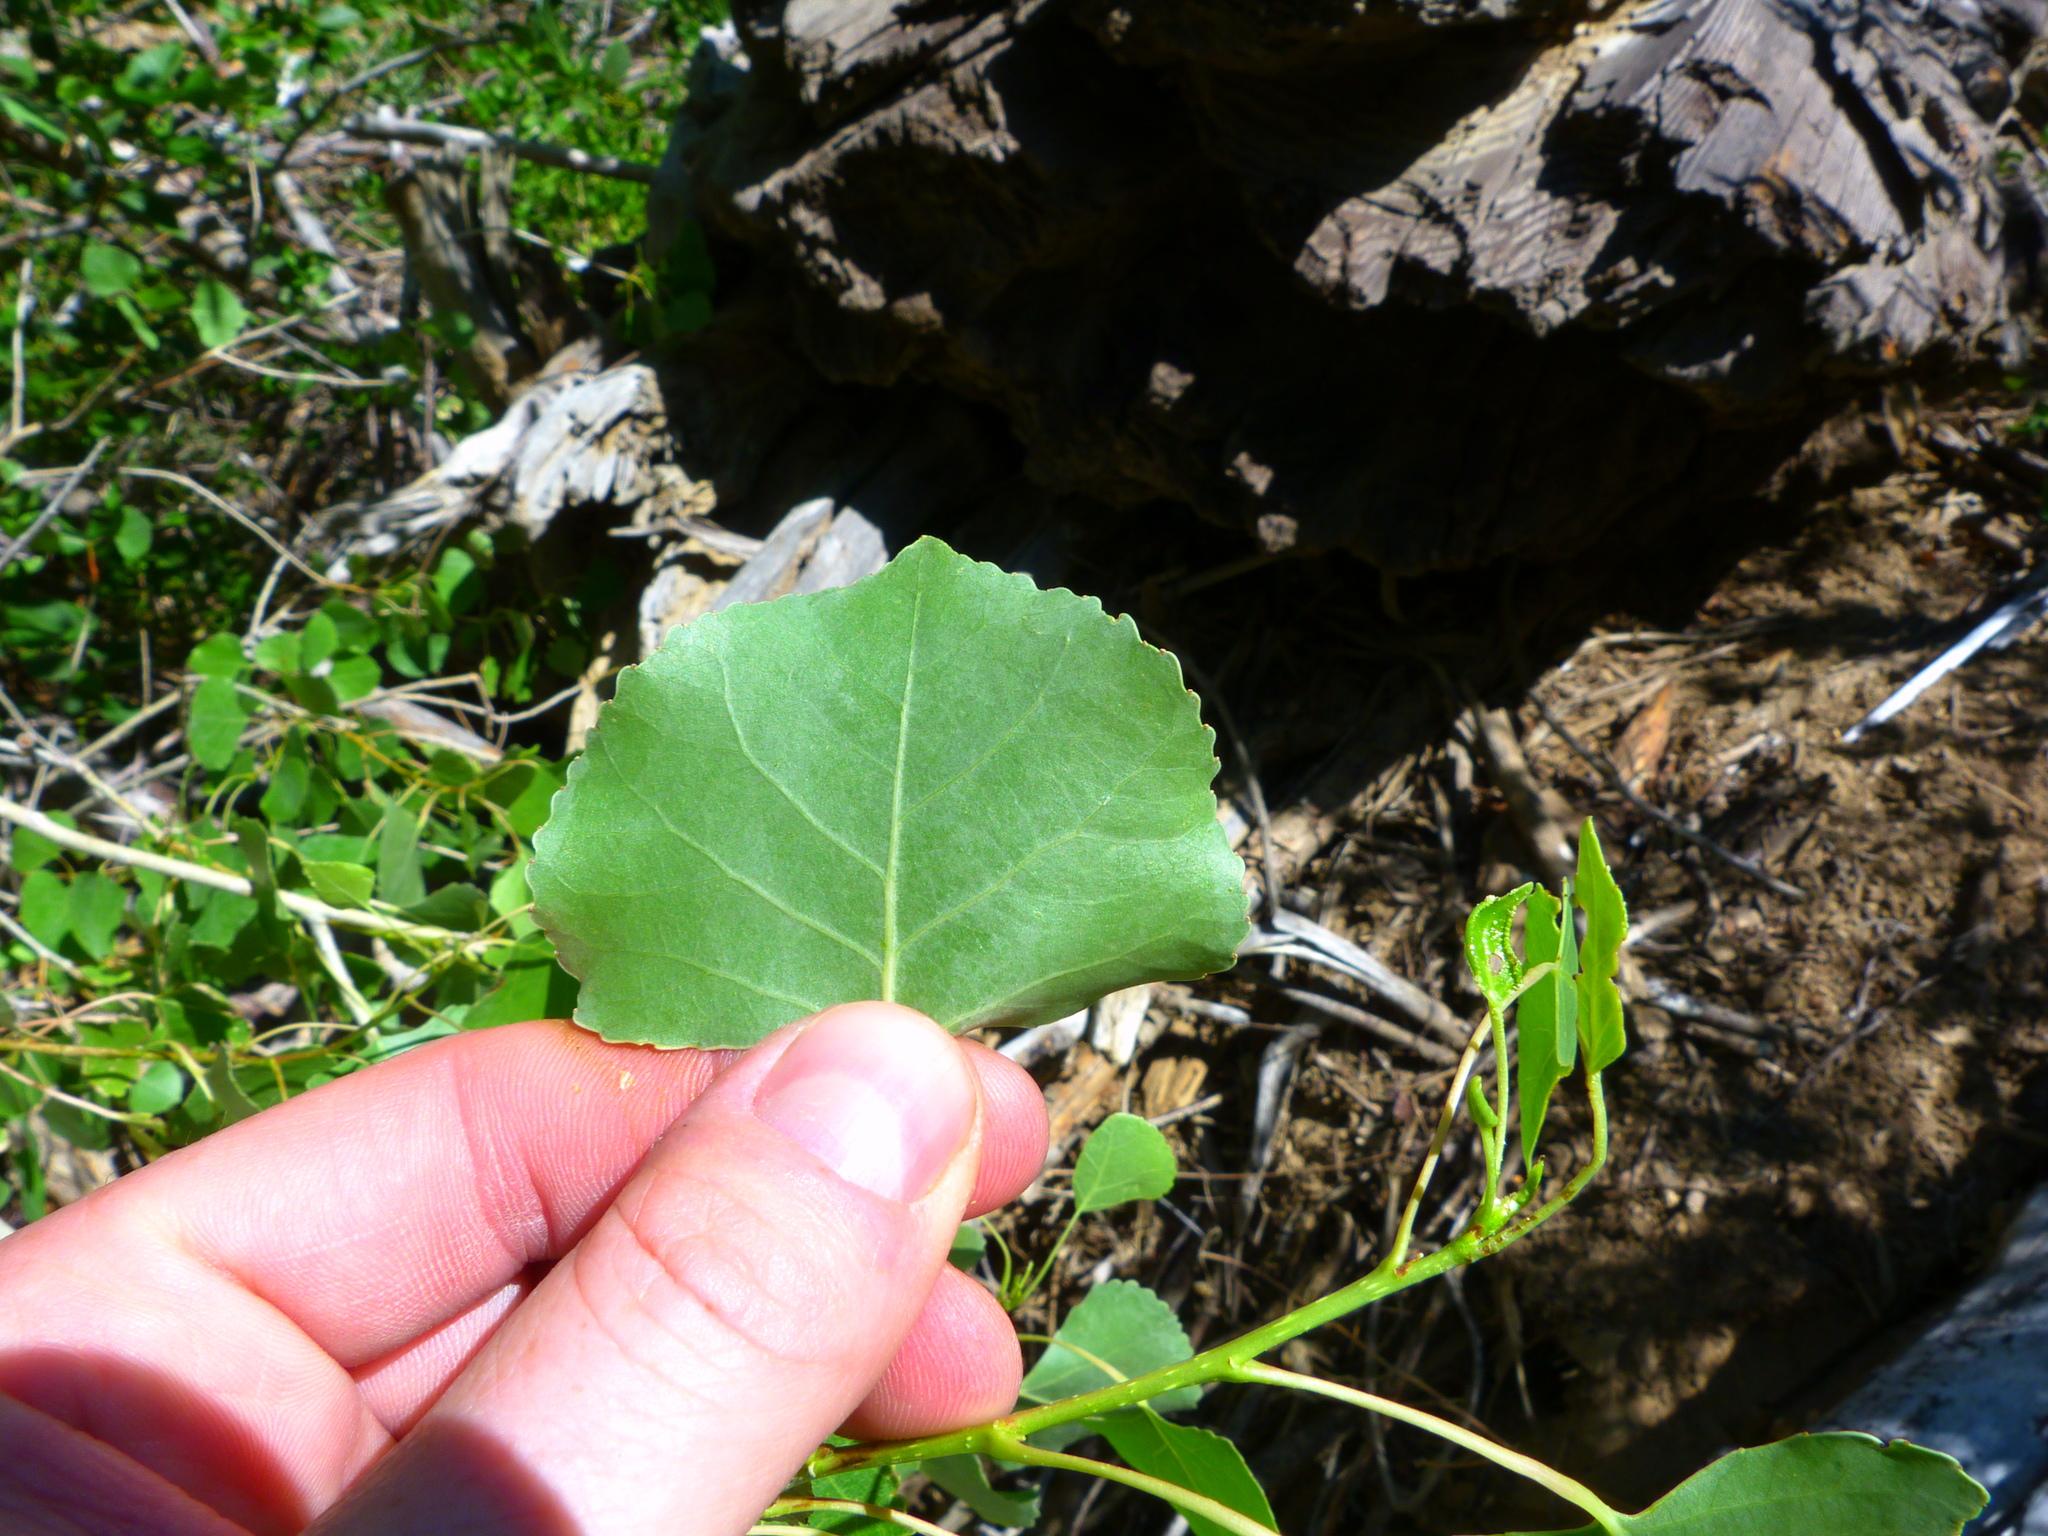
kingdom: Plantae
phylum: Tracheophyta
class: Magnoliopsida
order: Malpighiales
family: Salicaceae
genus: Populus
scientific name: Populus fremontii
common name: Fremont's cottonwood
